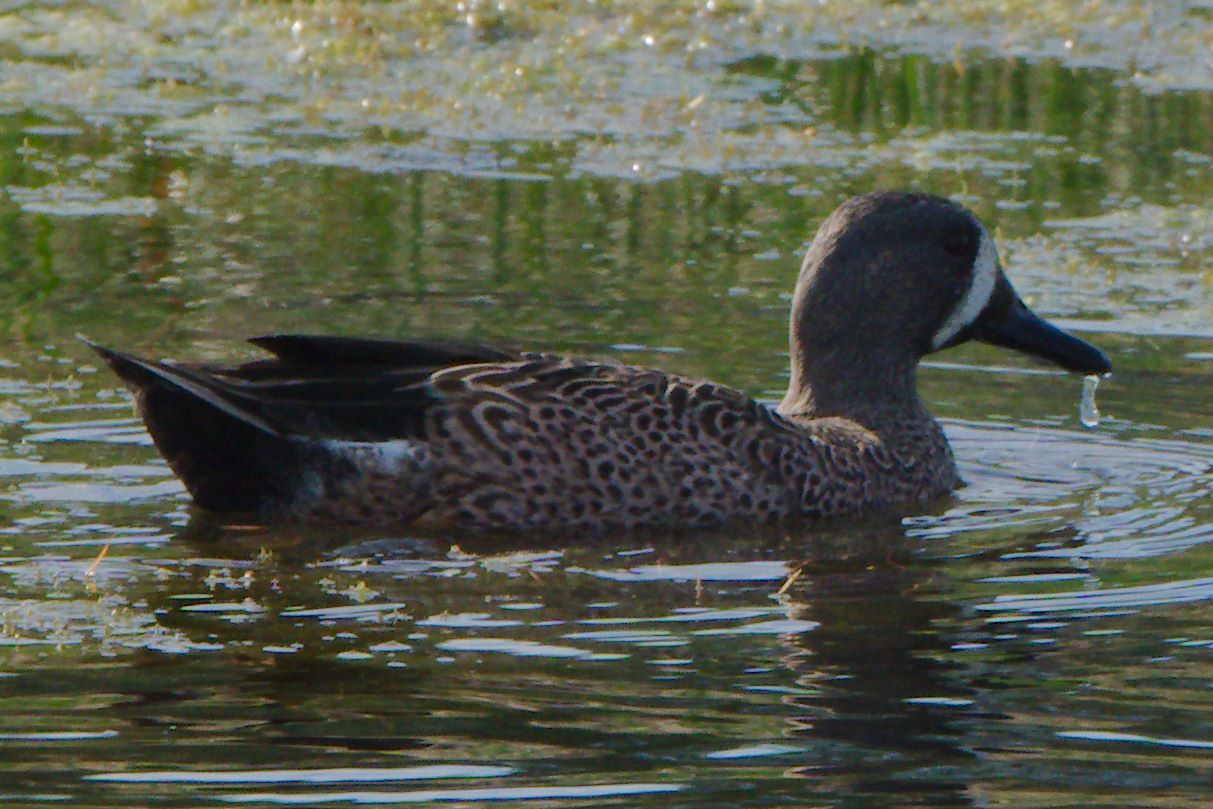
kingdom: Animalia
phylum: Chordata
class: Aves
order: Anseriformes
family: Anatidae
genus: Spatula
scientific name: Spatula discors
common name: Blue-winged teal
